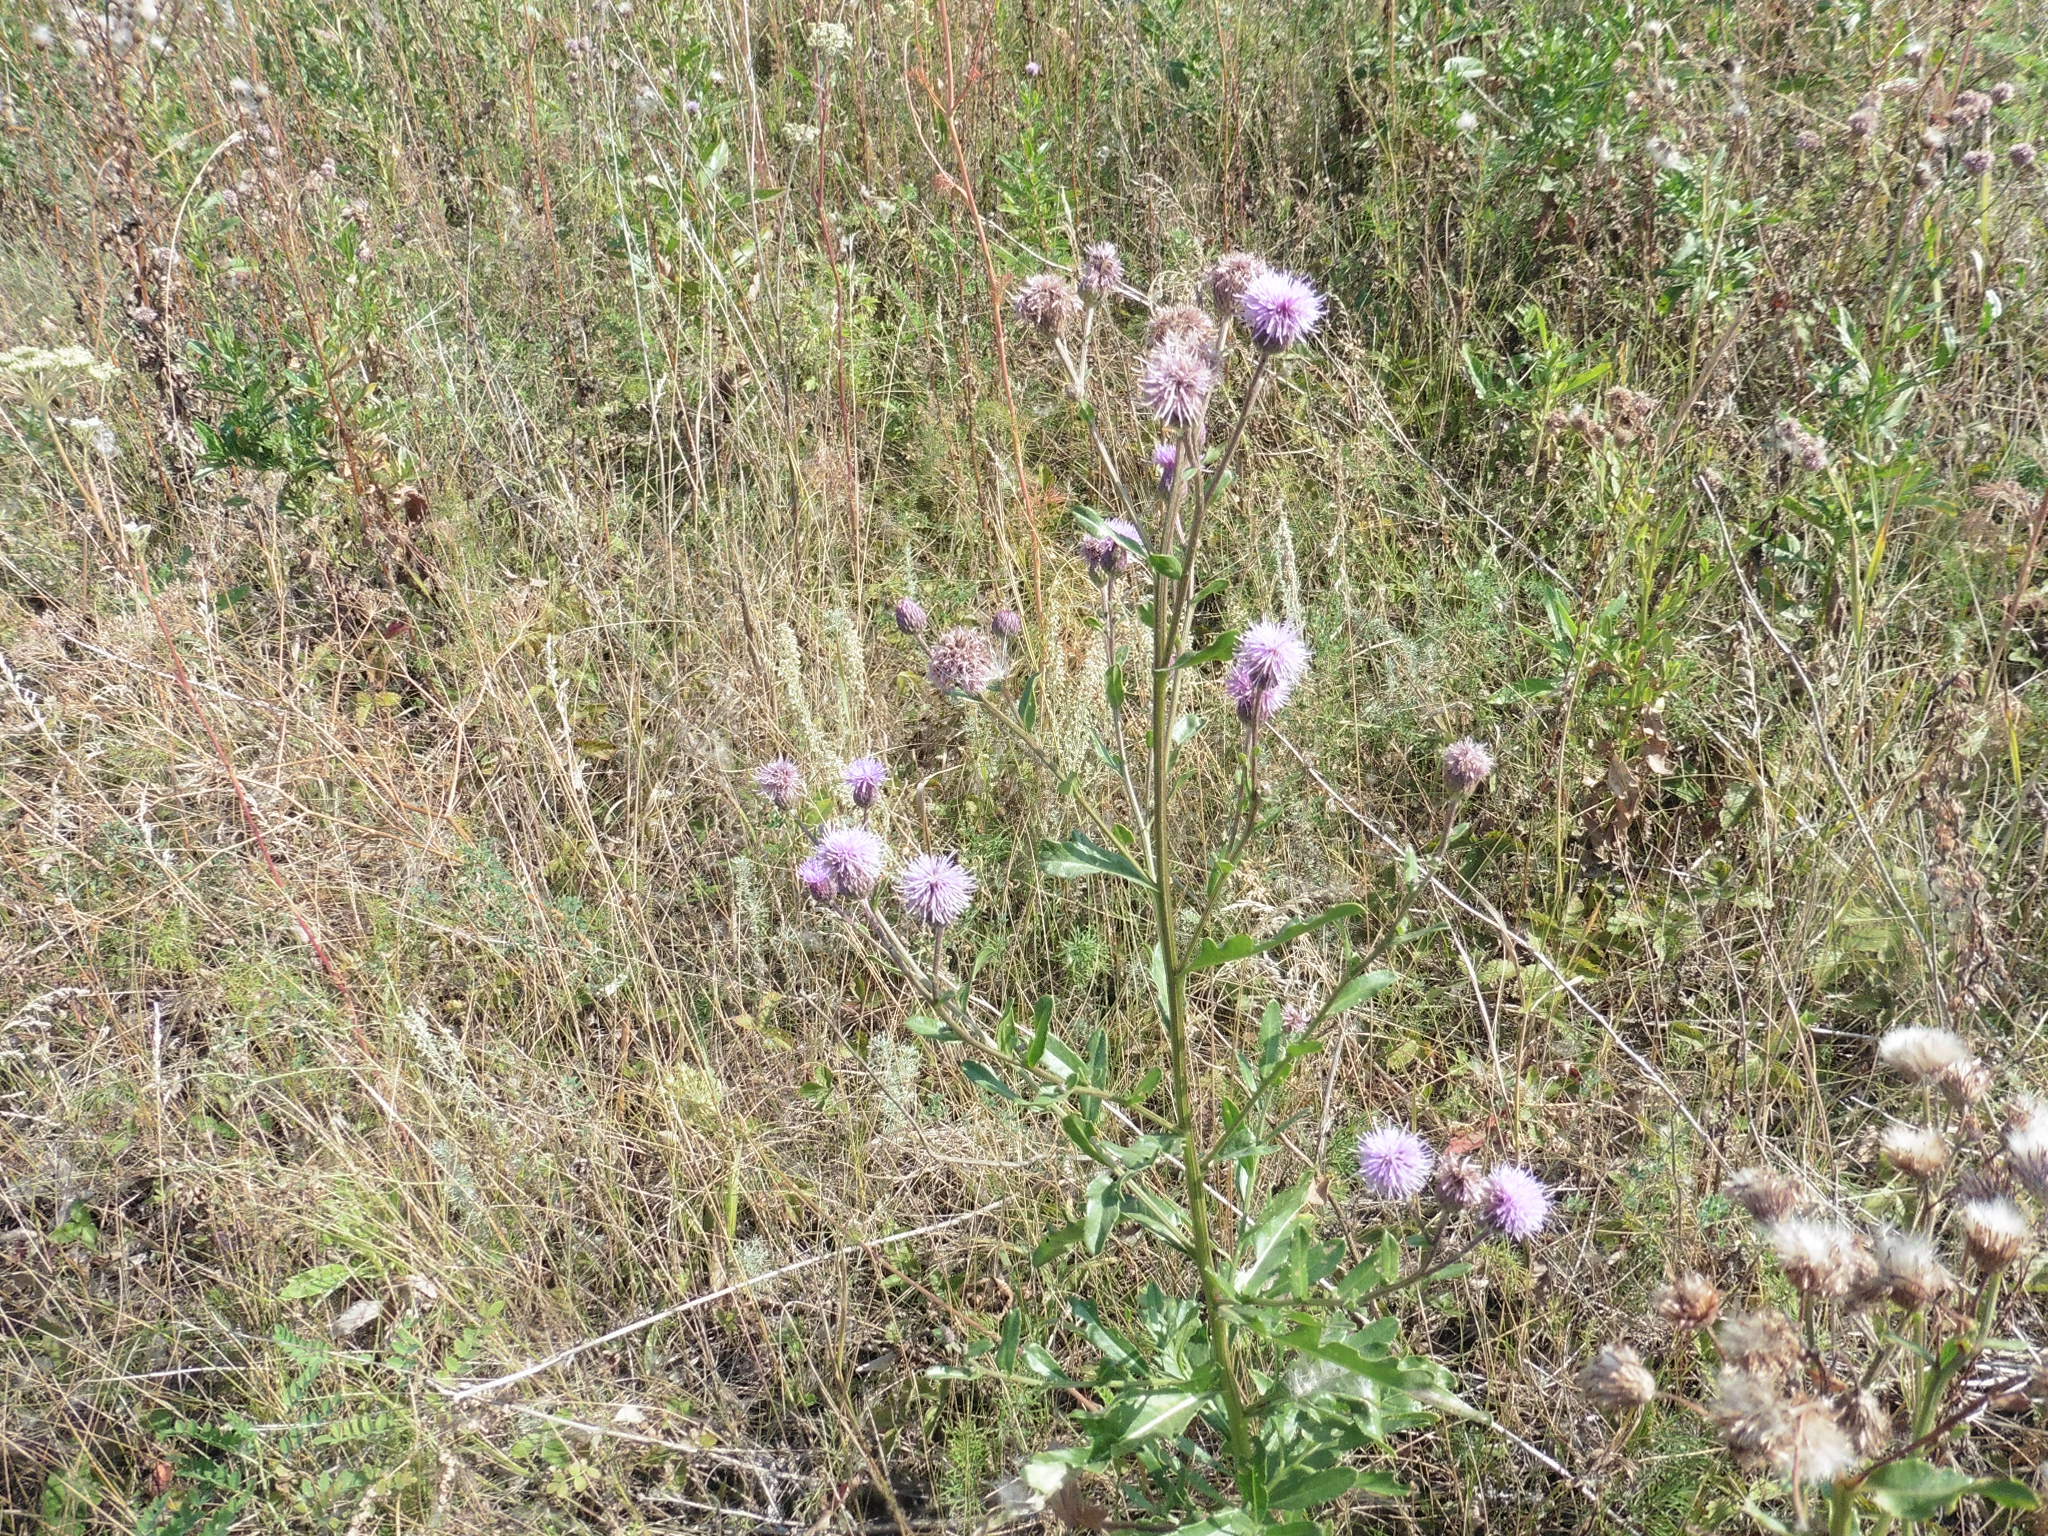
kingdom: Plantae
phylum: Tracheophyta
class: Magnoliopsida
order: Asterales
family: Asteraceae
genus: Cirsium
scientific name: Cirsium arvense
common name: Creeping thistle
